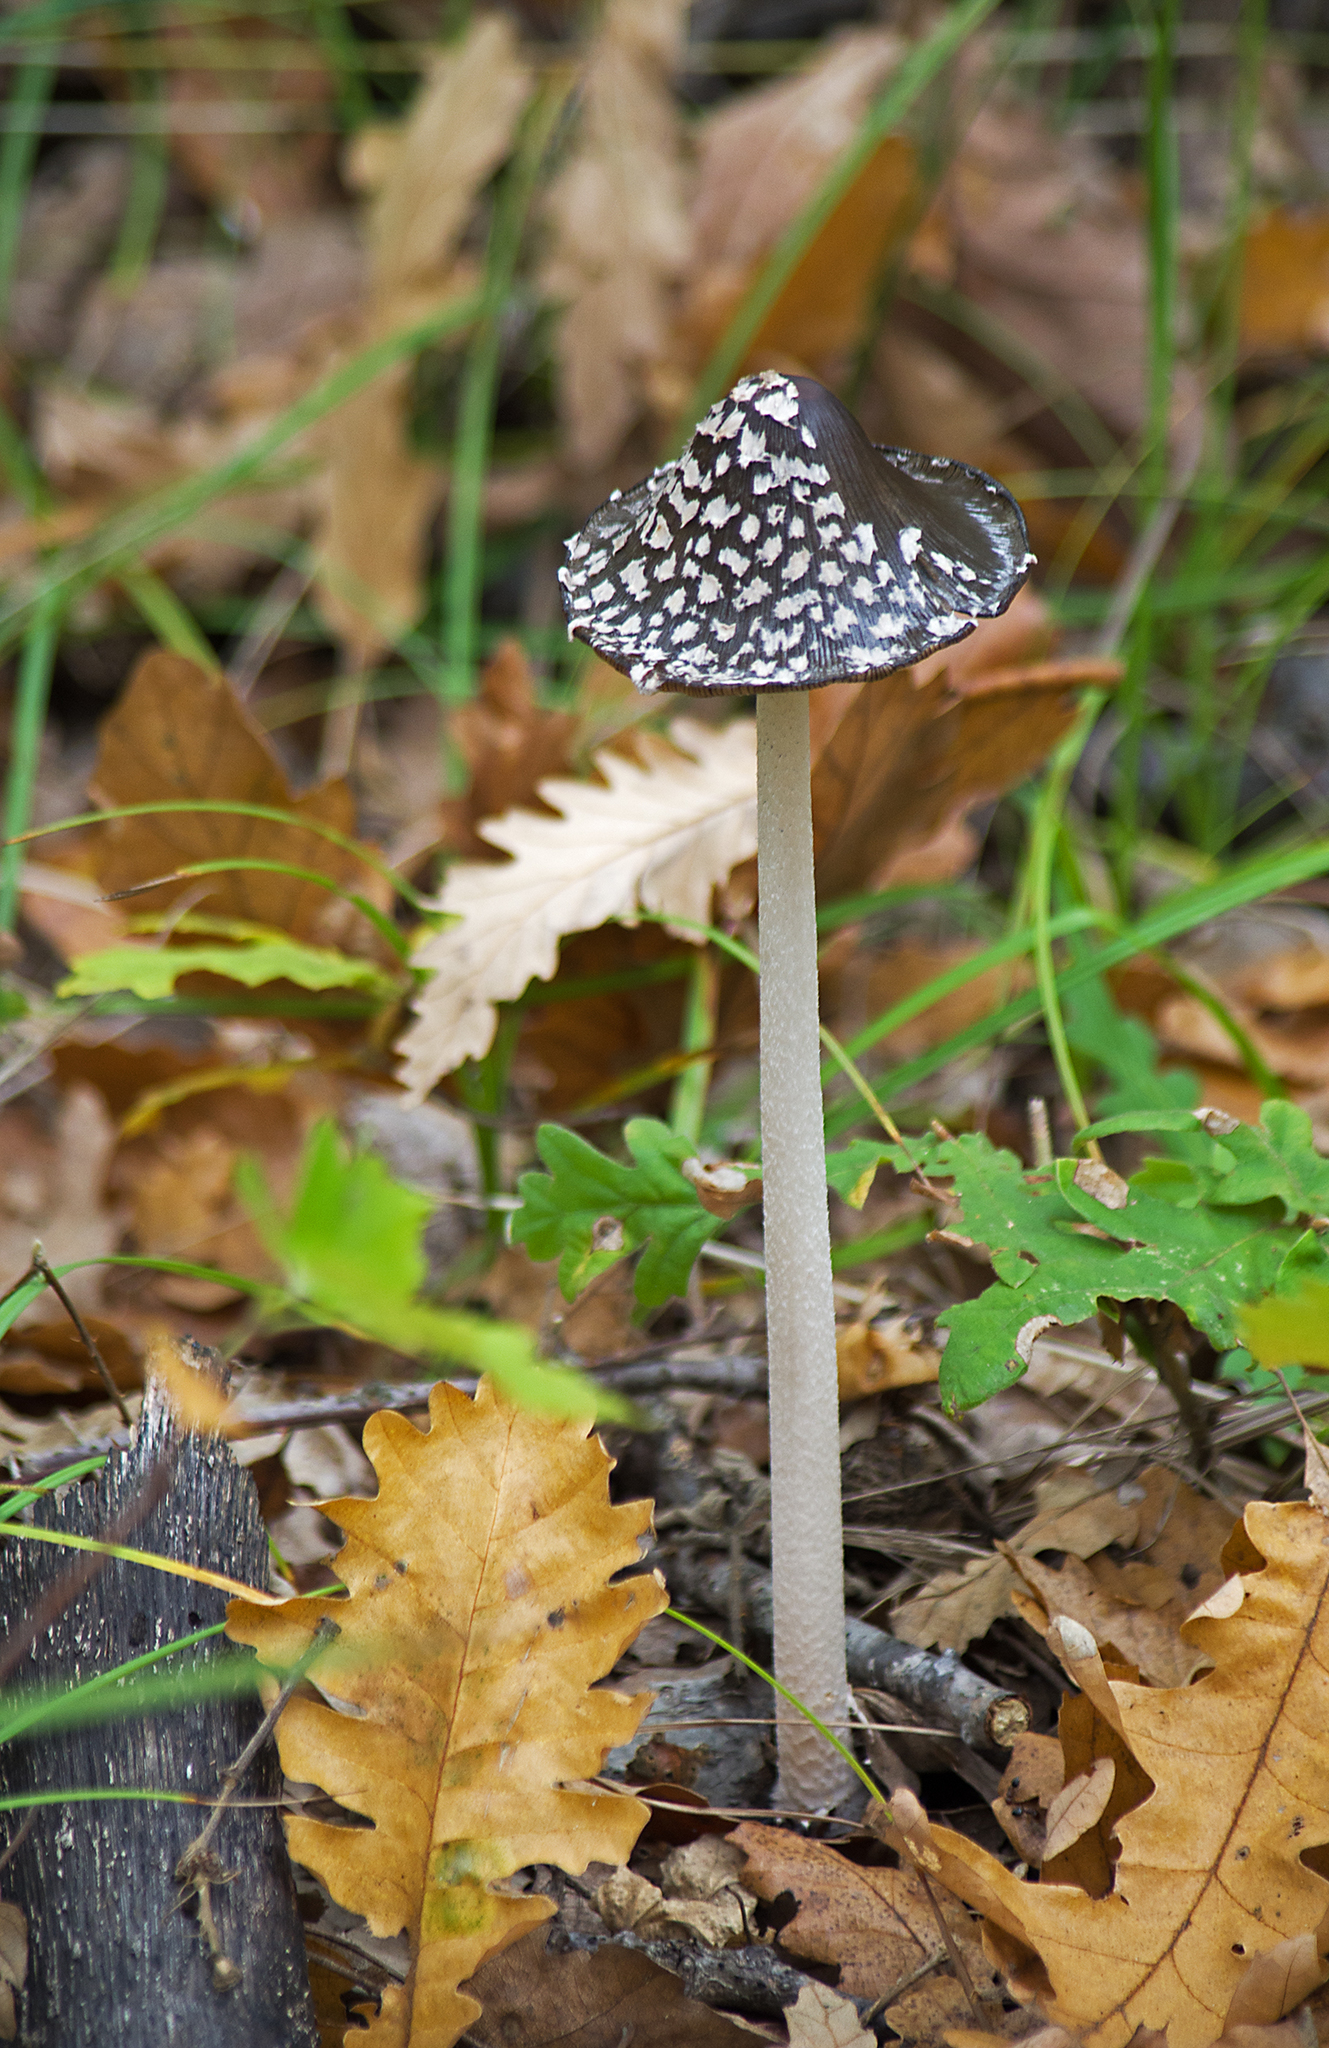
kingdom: Fungi
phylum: Basidiomycota
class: Agaricomycetes
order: Agaricales
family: Psathyrellaceae
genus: Coprinopsis
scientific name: Coprinopsis picacea
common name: Magpie inkcap
